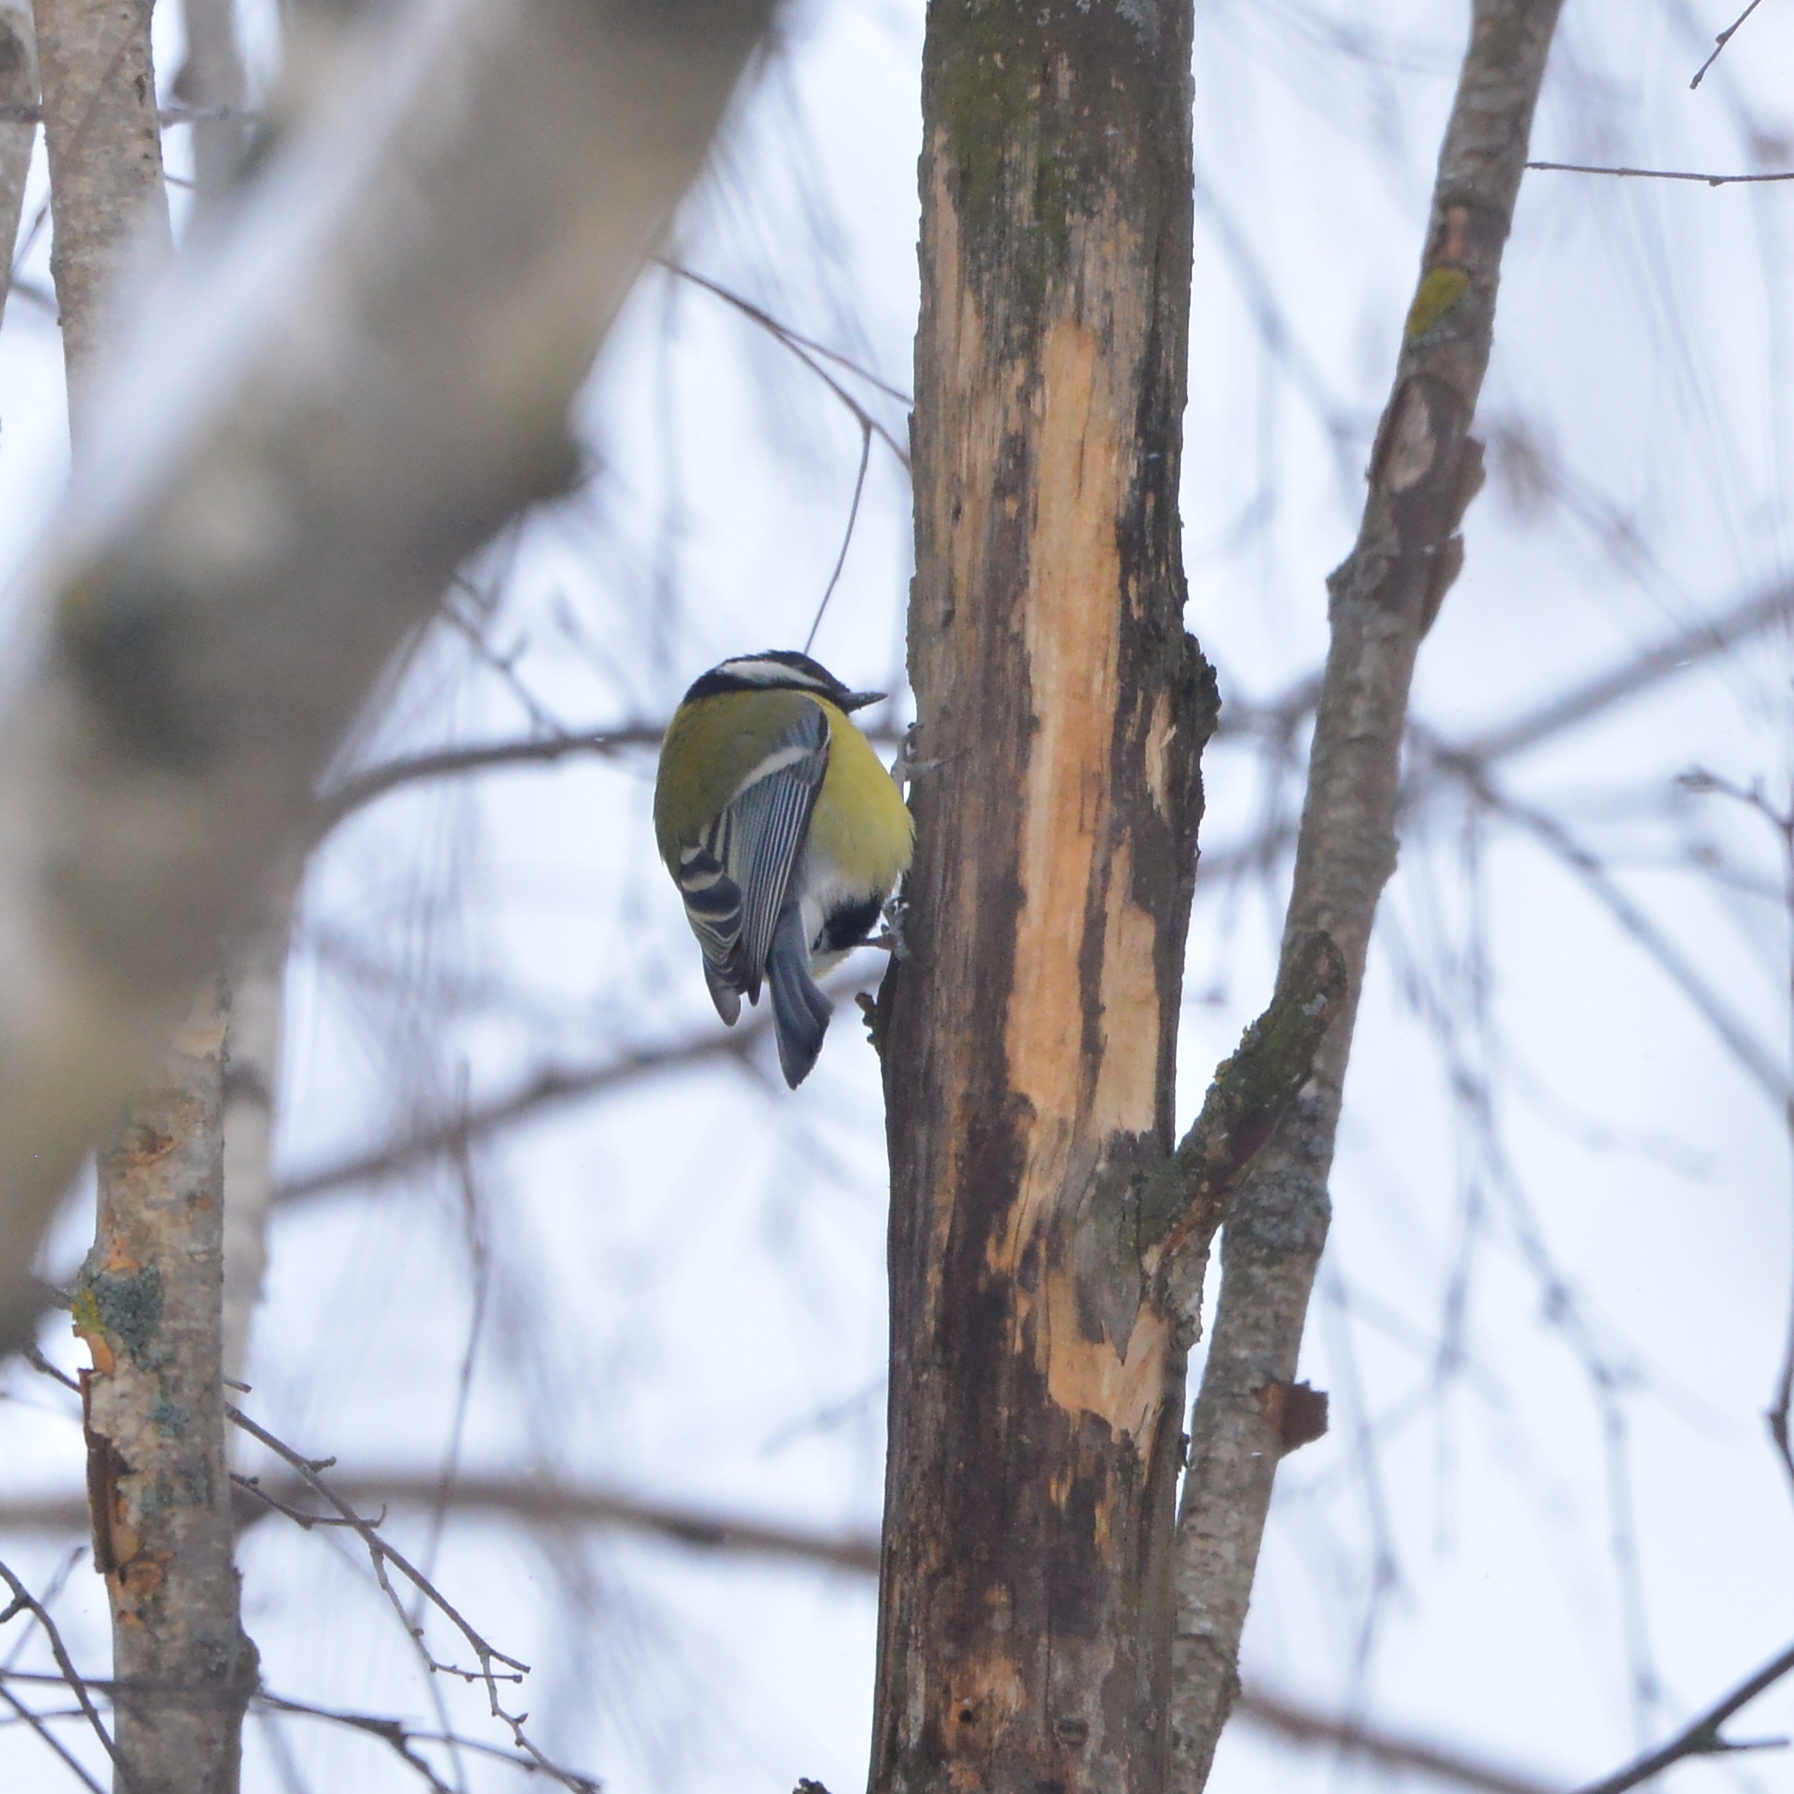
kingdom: Animalia
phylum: Chordata
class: Aves
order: Passeriformes
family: Paridae
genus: Parus
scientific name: Parus major
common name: Great tit
